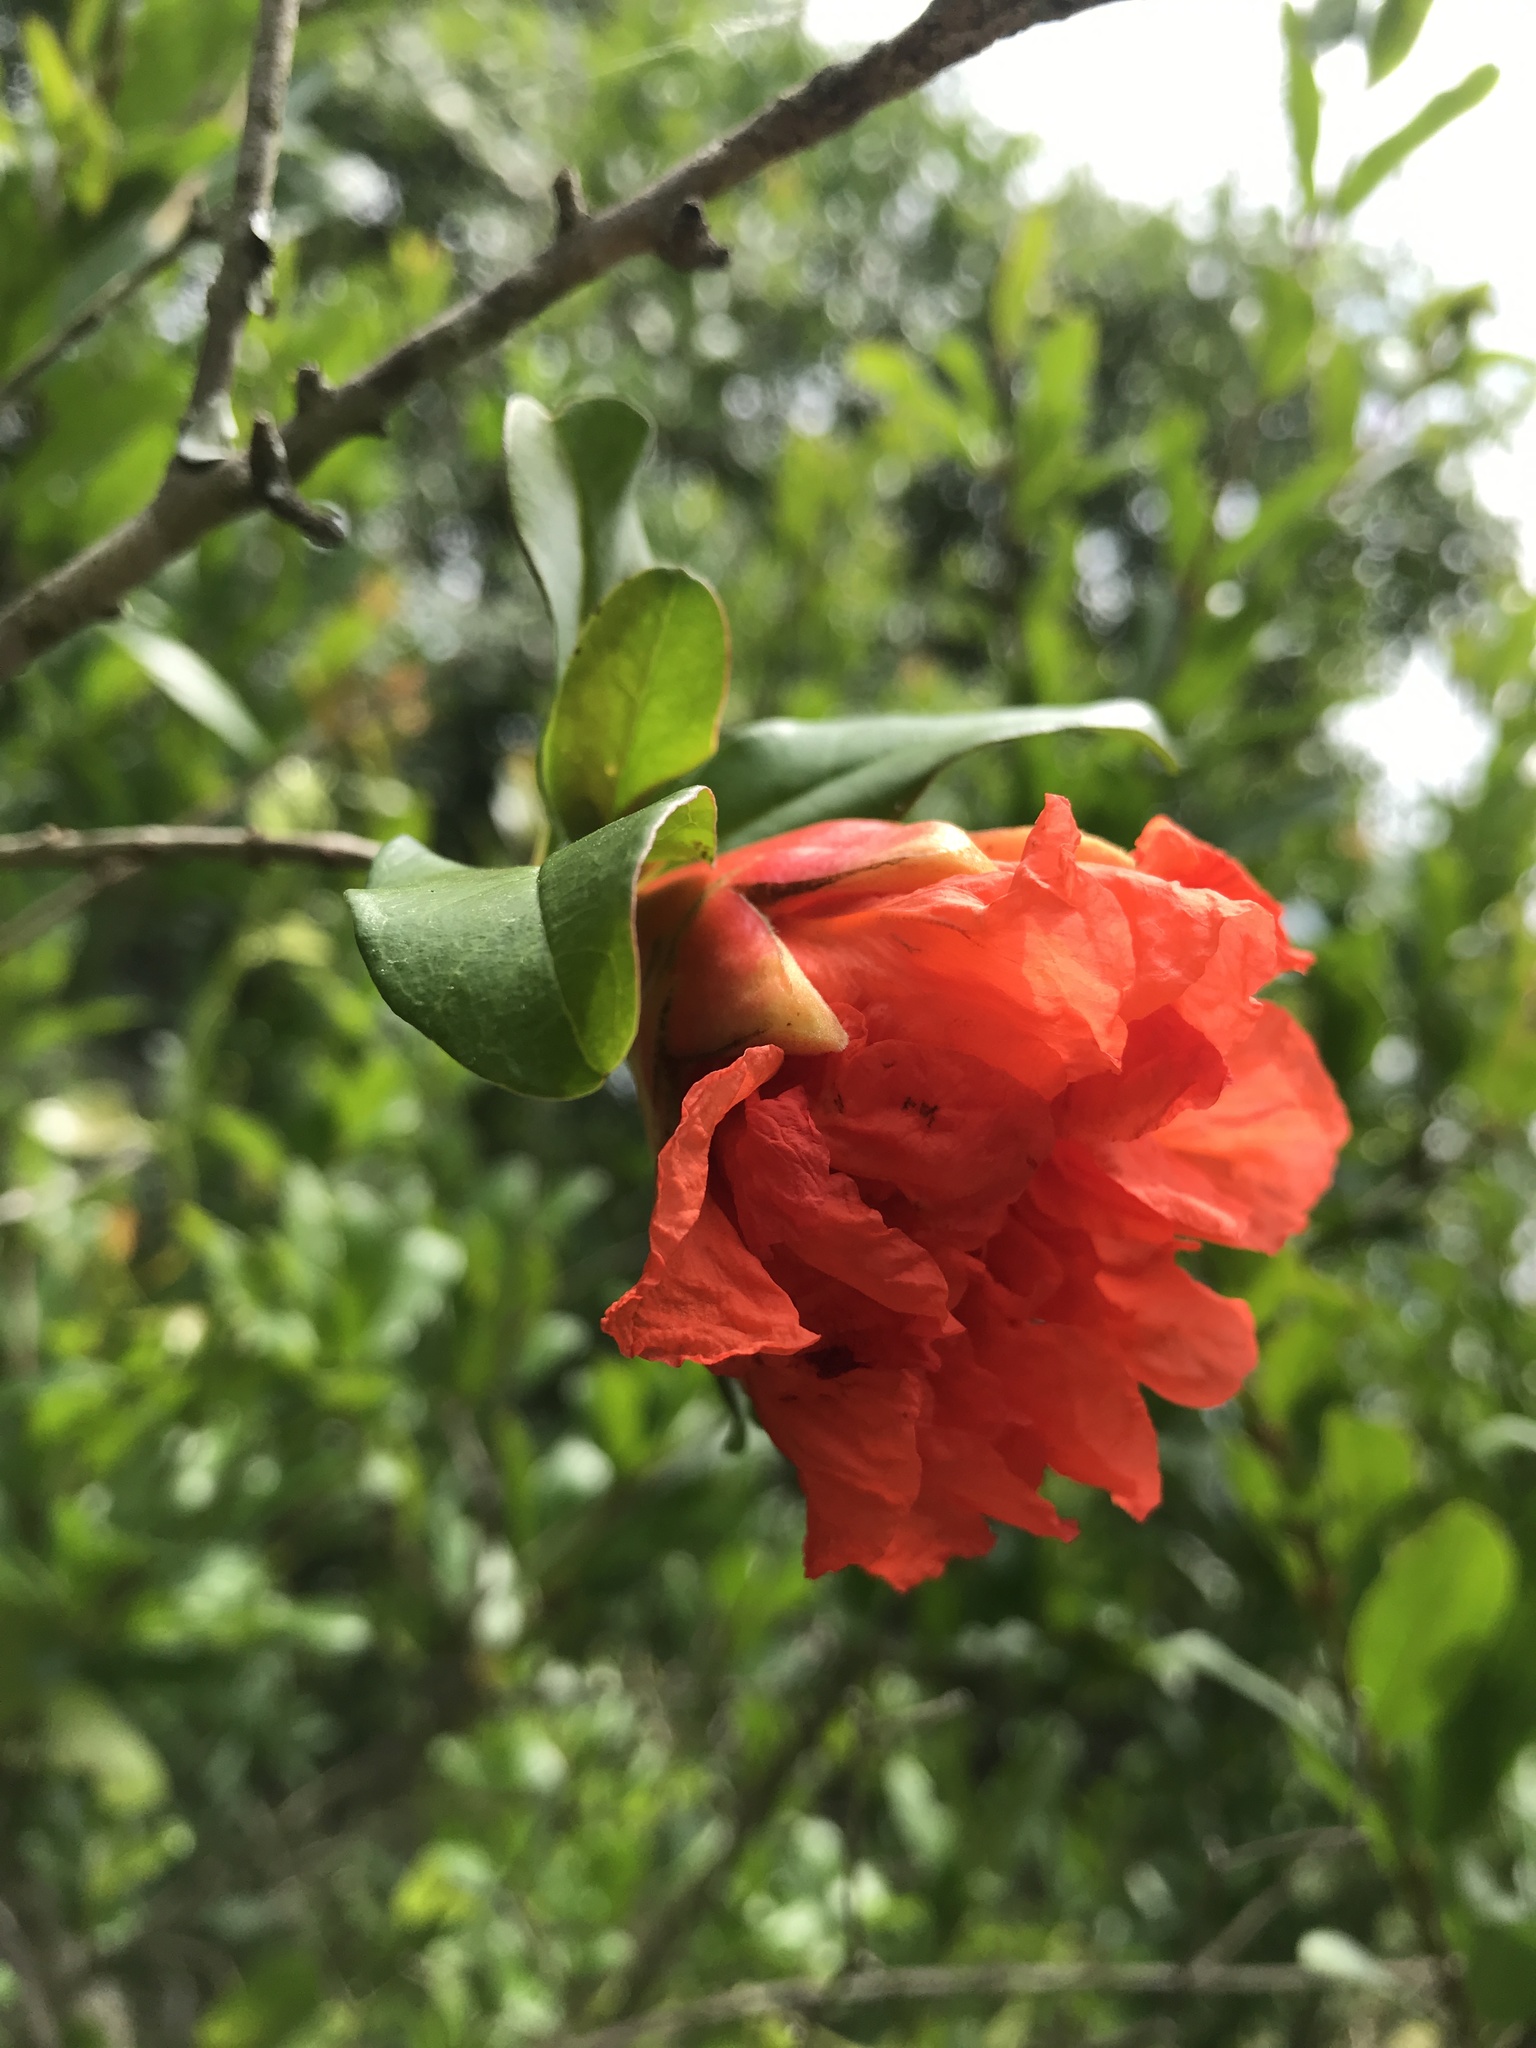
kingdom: Plantae
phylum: Tracheophyta
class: Magnoliopsida
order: Myrtales
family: Lythraceae
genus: Punica
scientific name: Punica granatum
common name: Pomegranate
